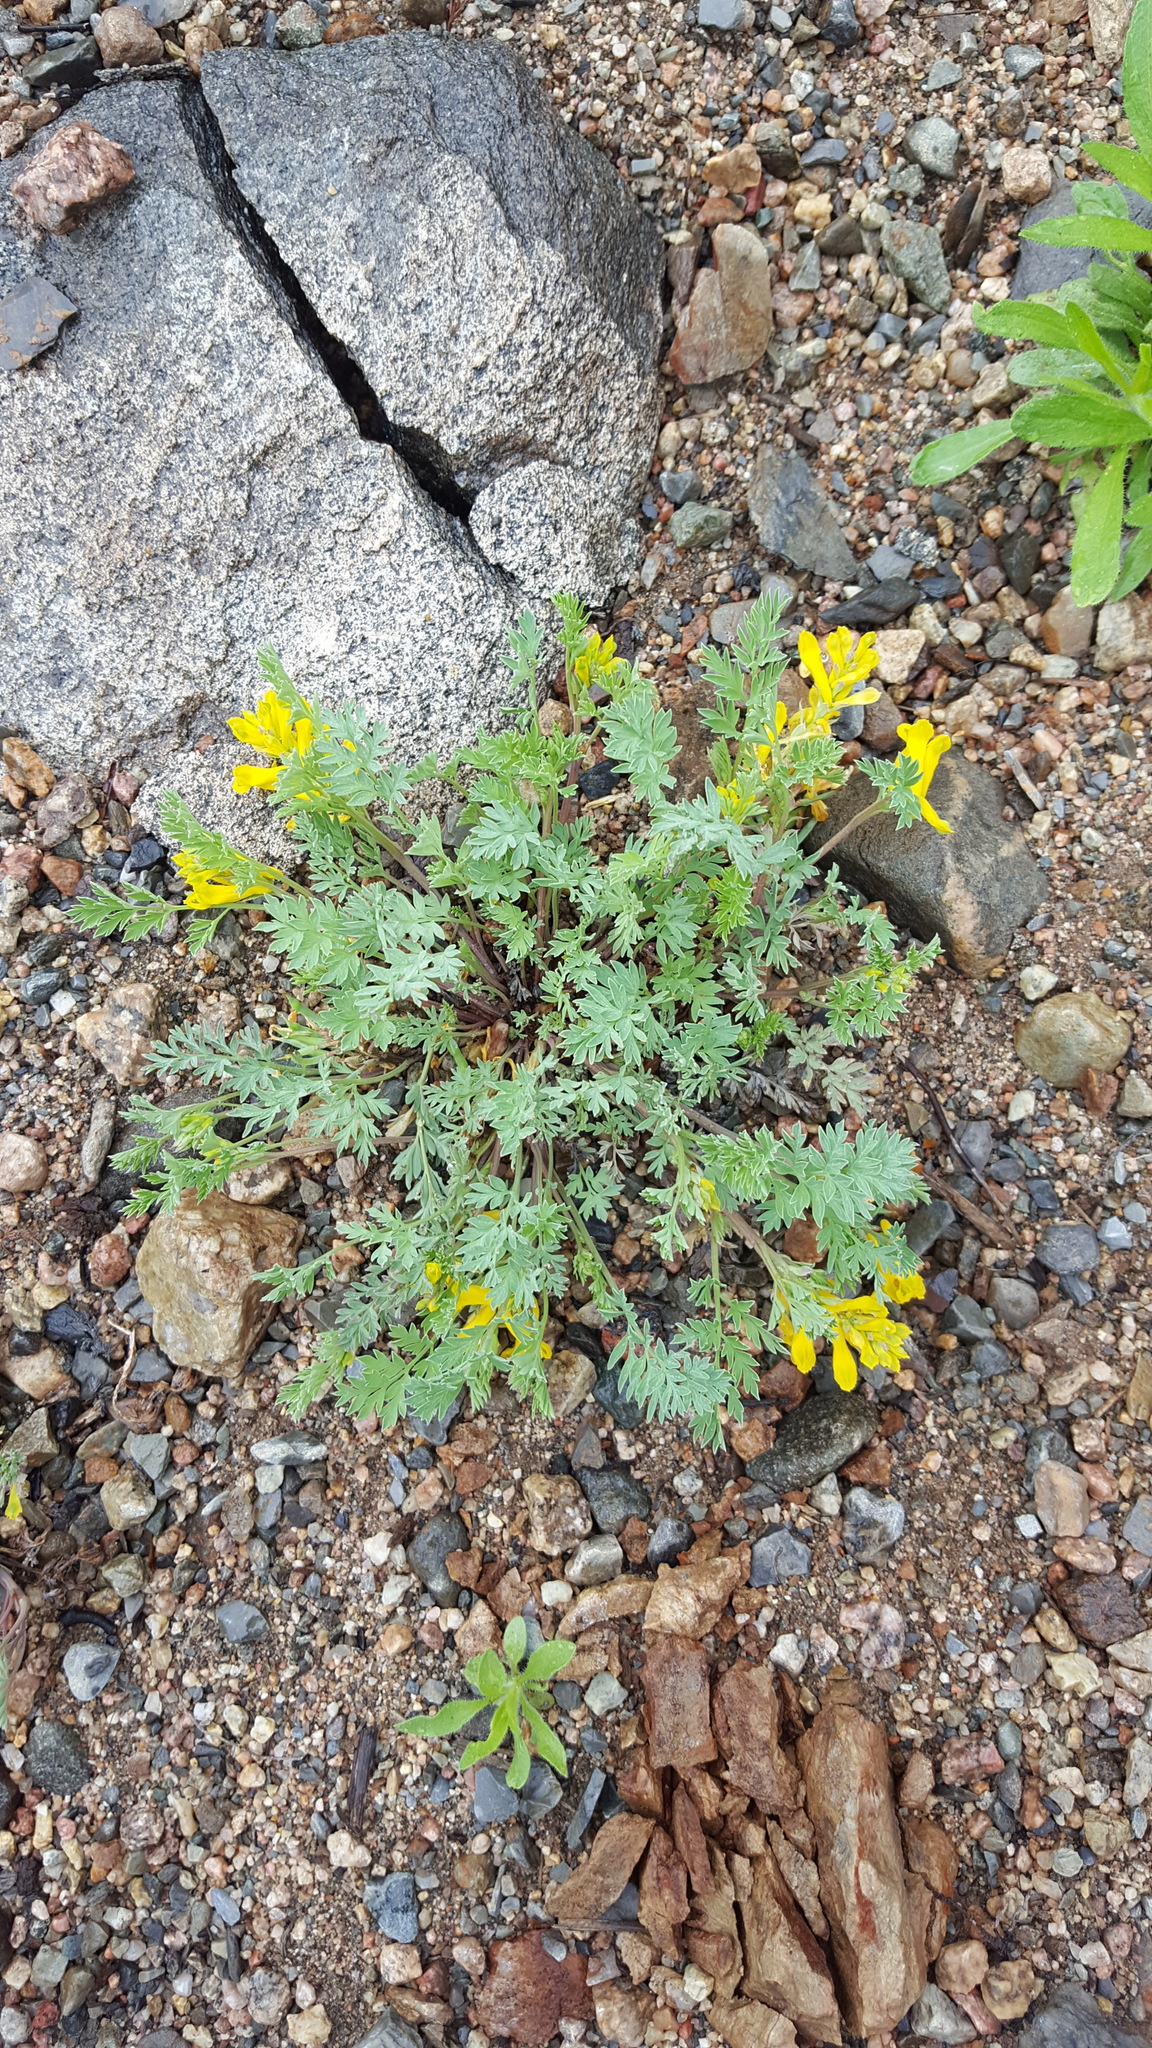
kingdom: Plantae
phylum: Tracheophyta
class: Magnoliopsida
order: Ranunculales
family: Papaveraceae
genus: Corydalis
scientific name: Corydalis aurea
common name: Golden corydalis
